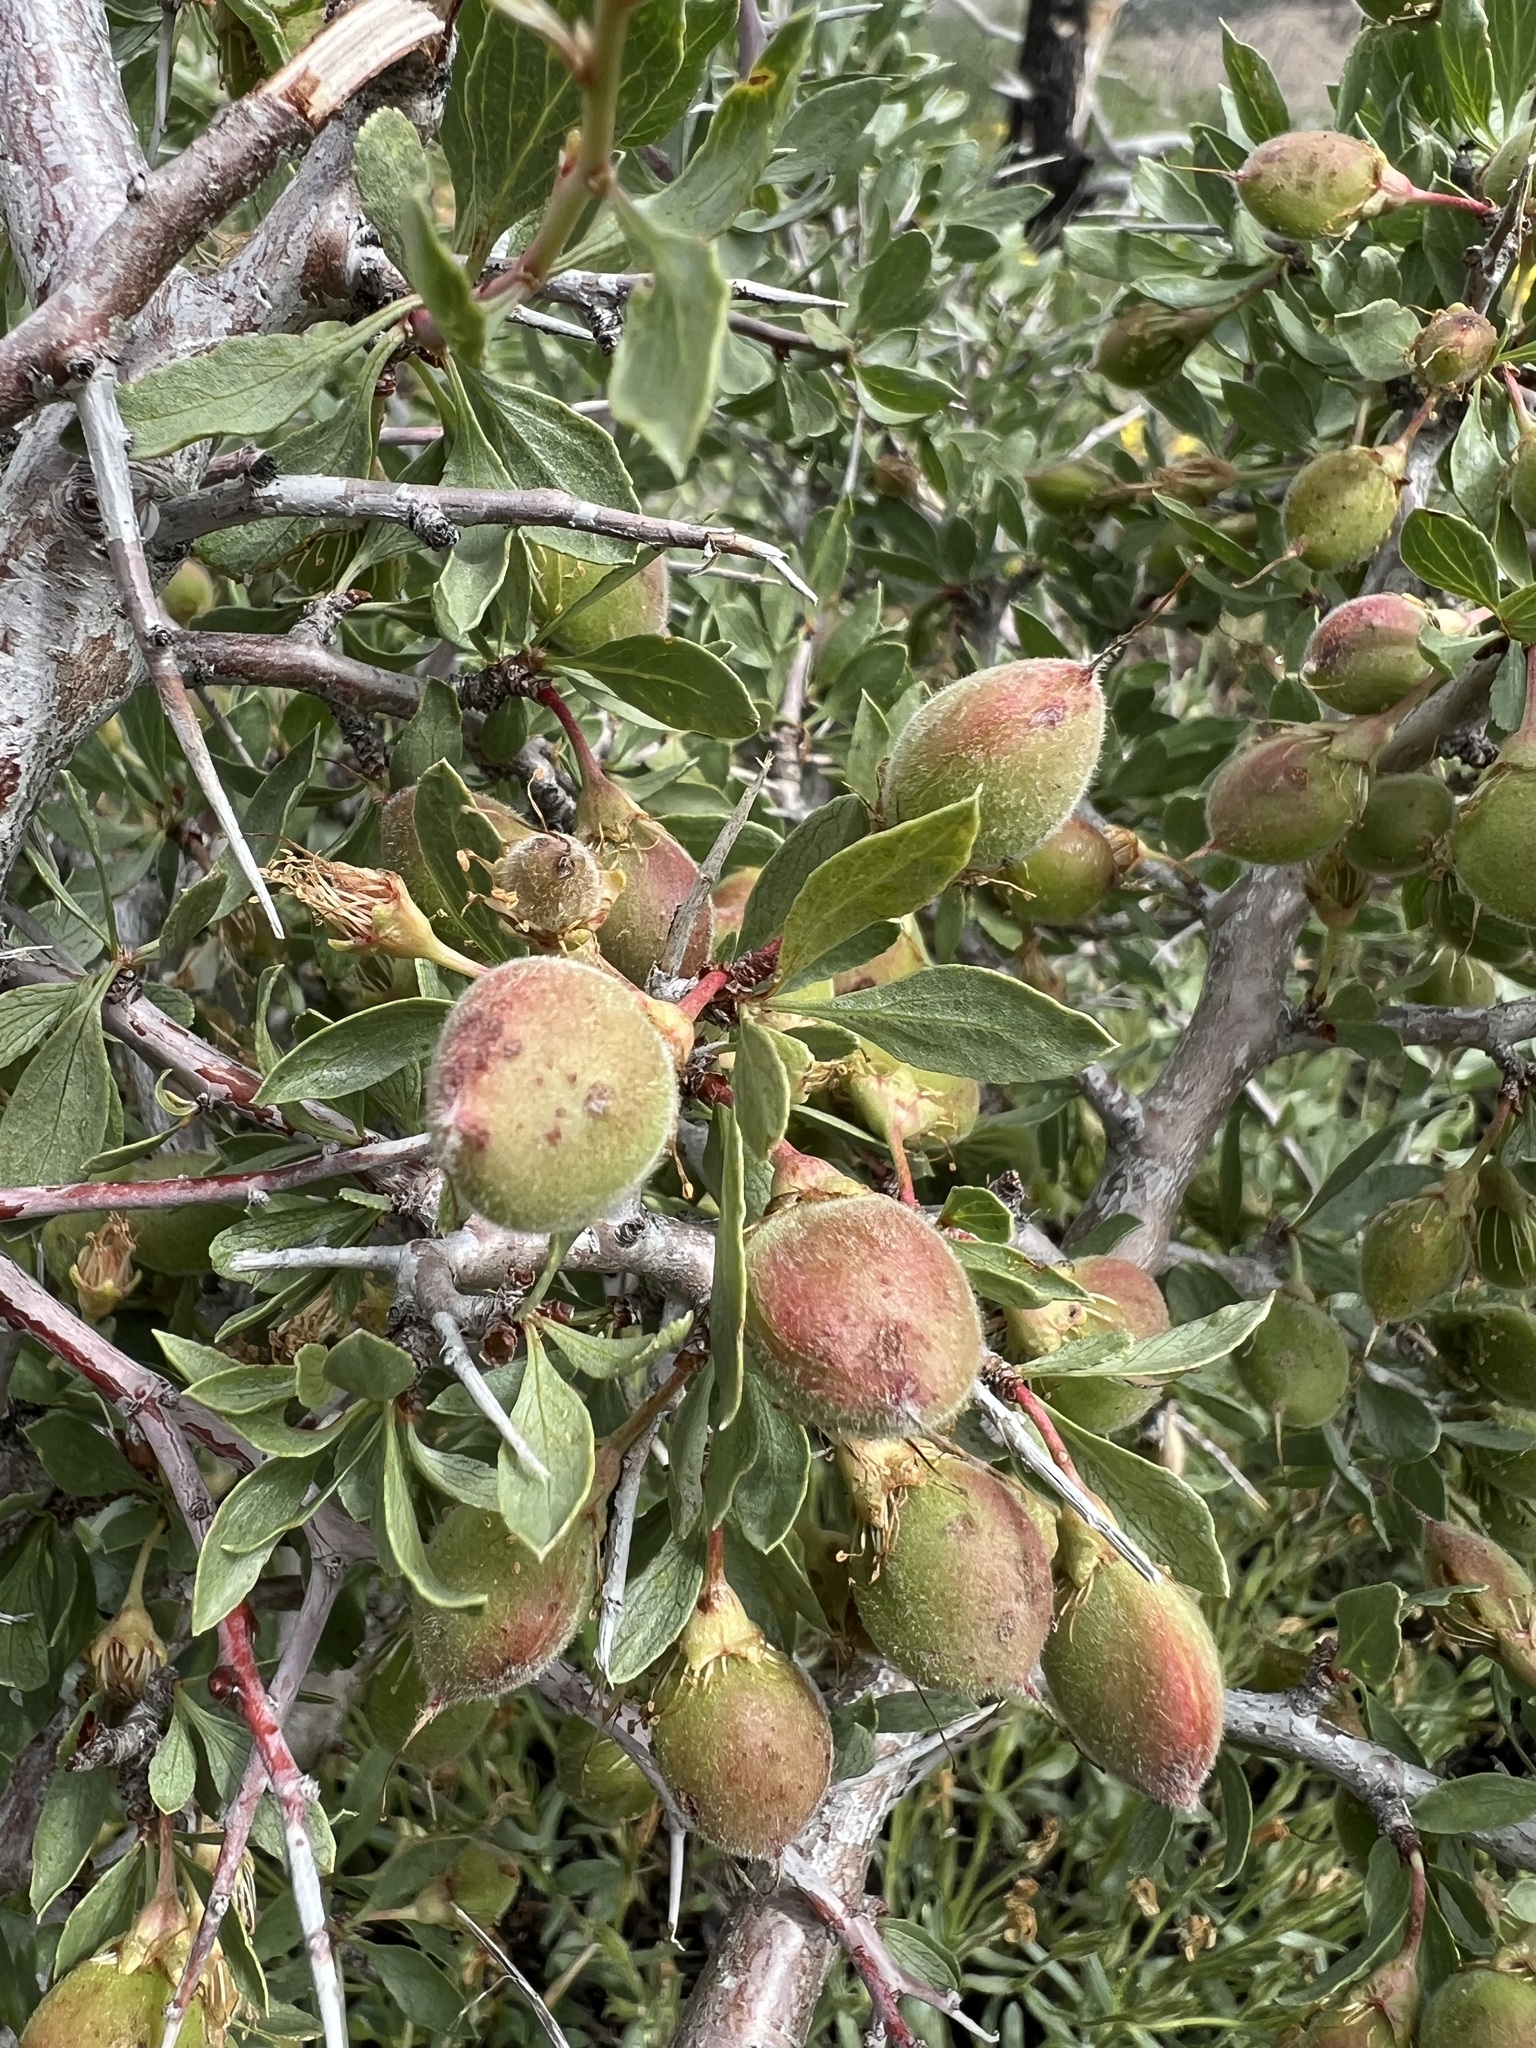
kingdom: Plantae
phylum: Tracheophyta
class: Magnoliopsida
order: Rosales
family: Rosaceae
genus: Prunus
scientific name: Prunus andersonii
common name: Desert peach
